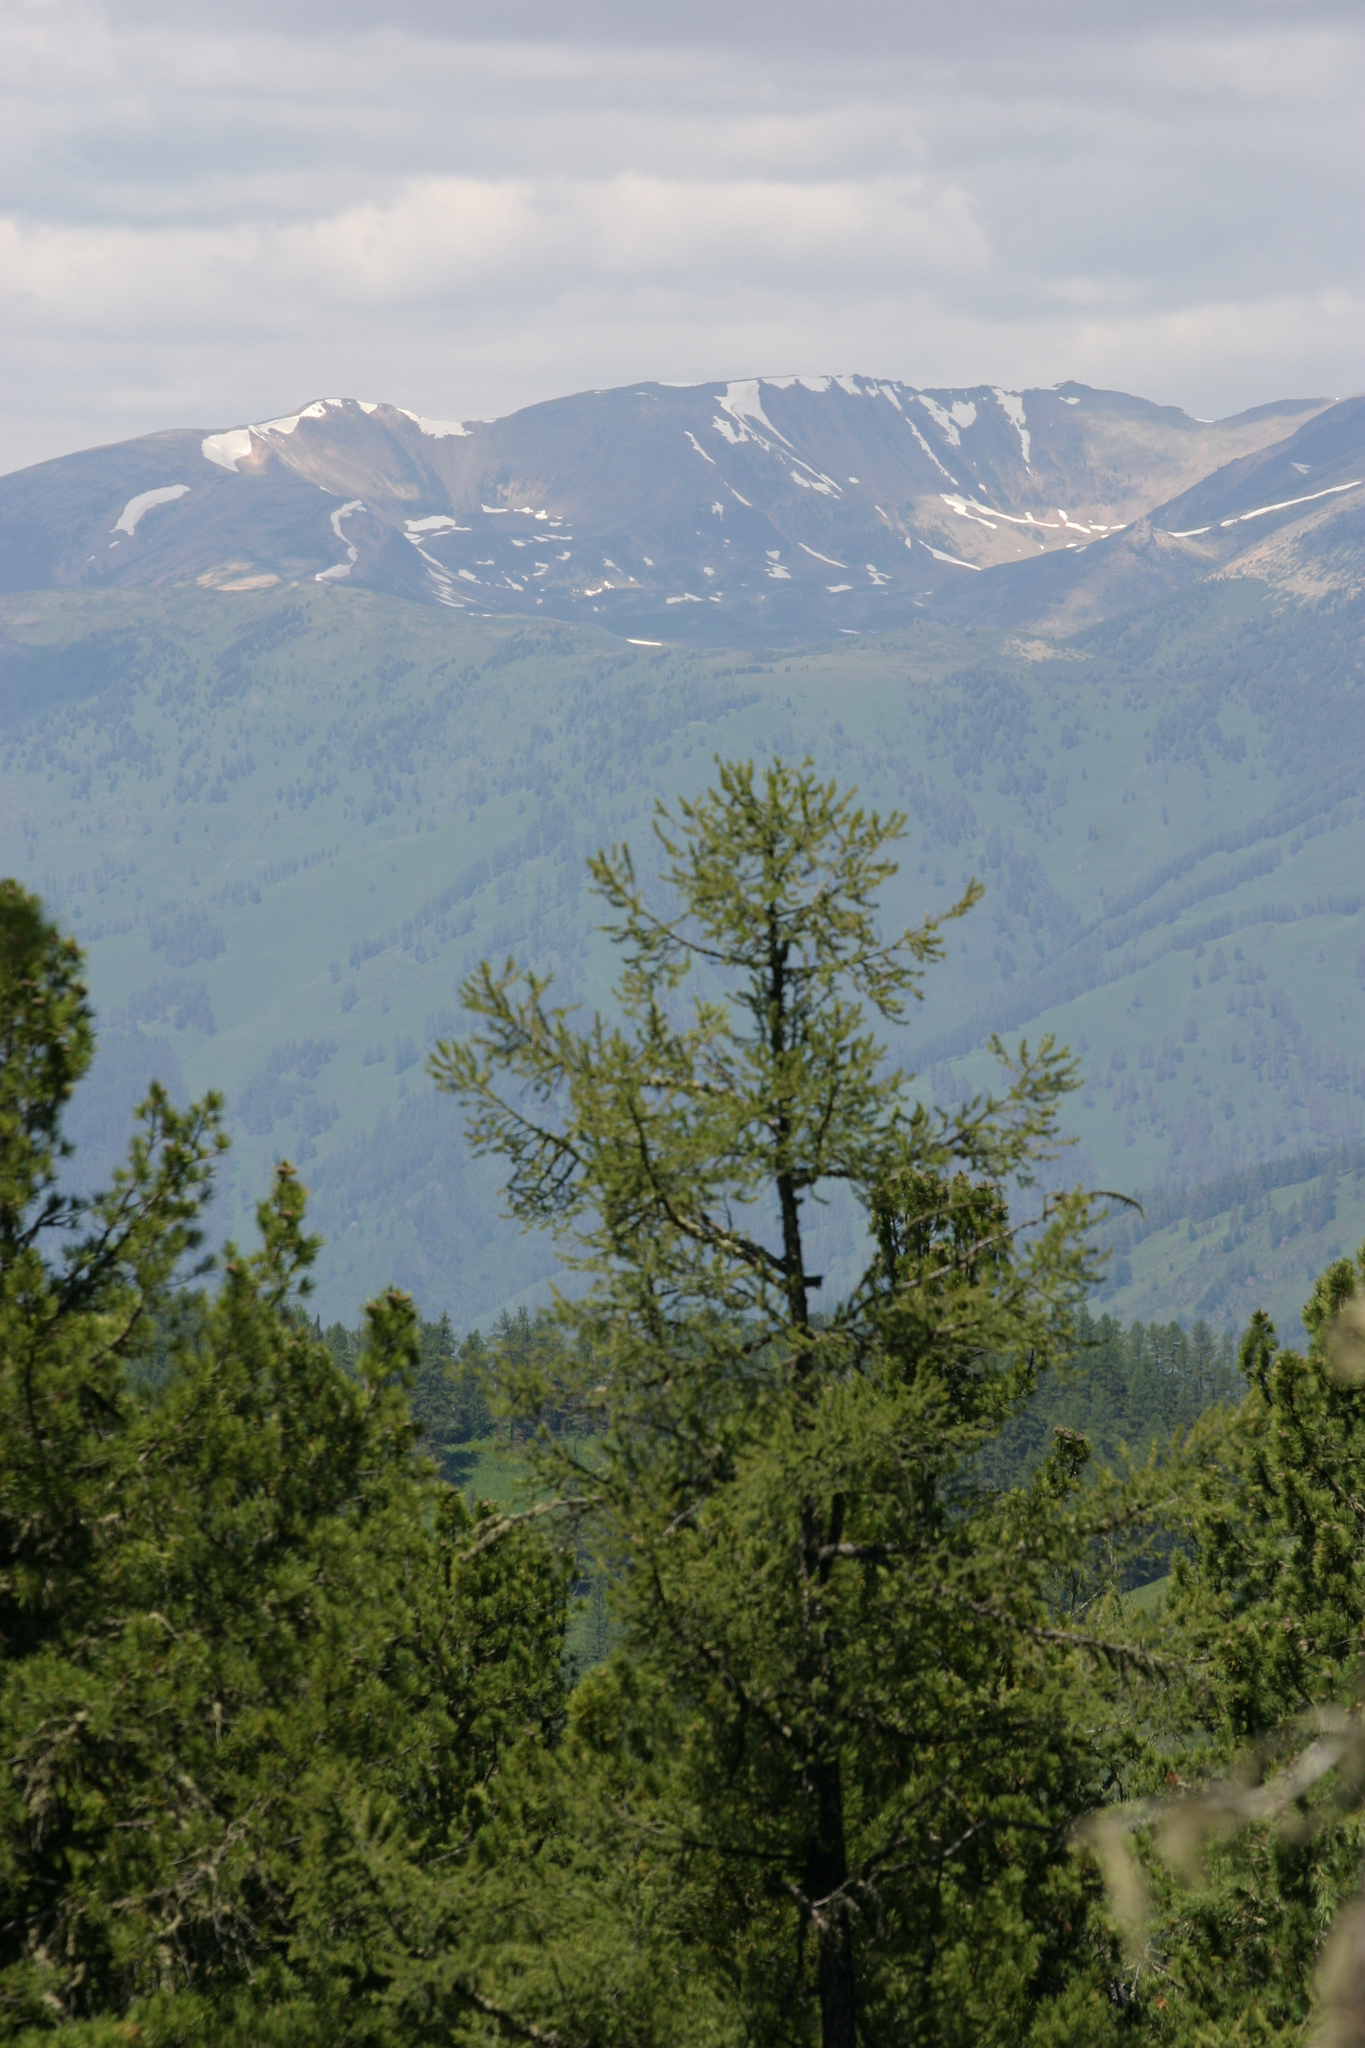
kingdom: Plantae
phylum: Tracheophyta
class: Pinopsida
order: Pinales
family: Pinaceae
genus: Larix
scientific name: Larix sibirica
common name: Siberian larch
